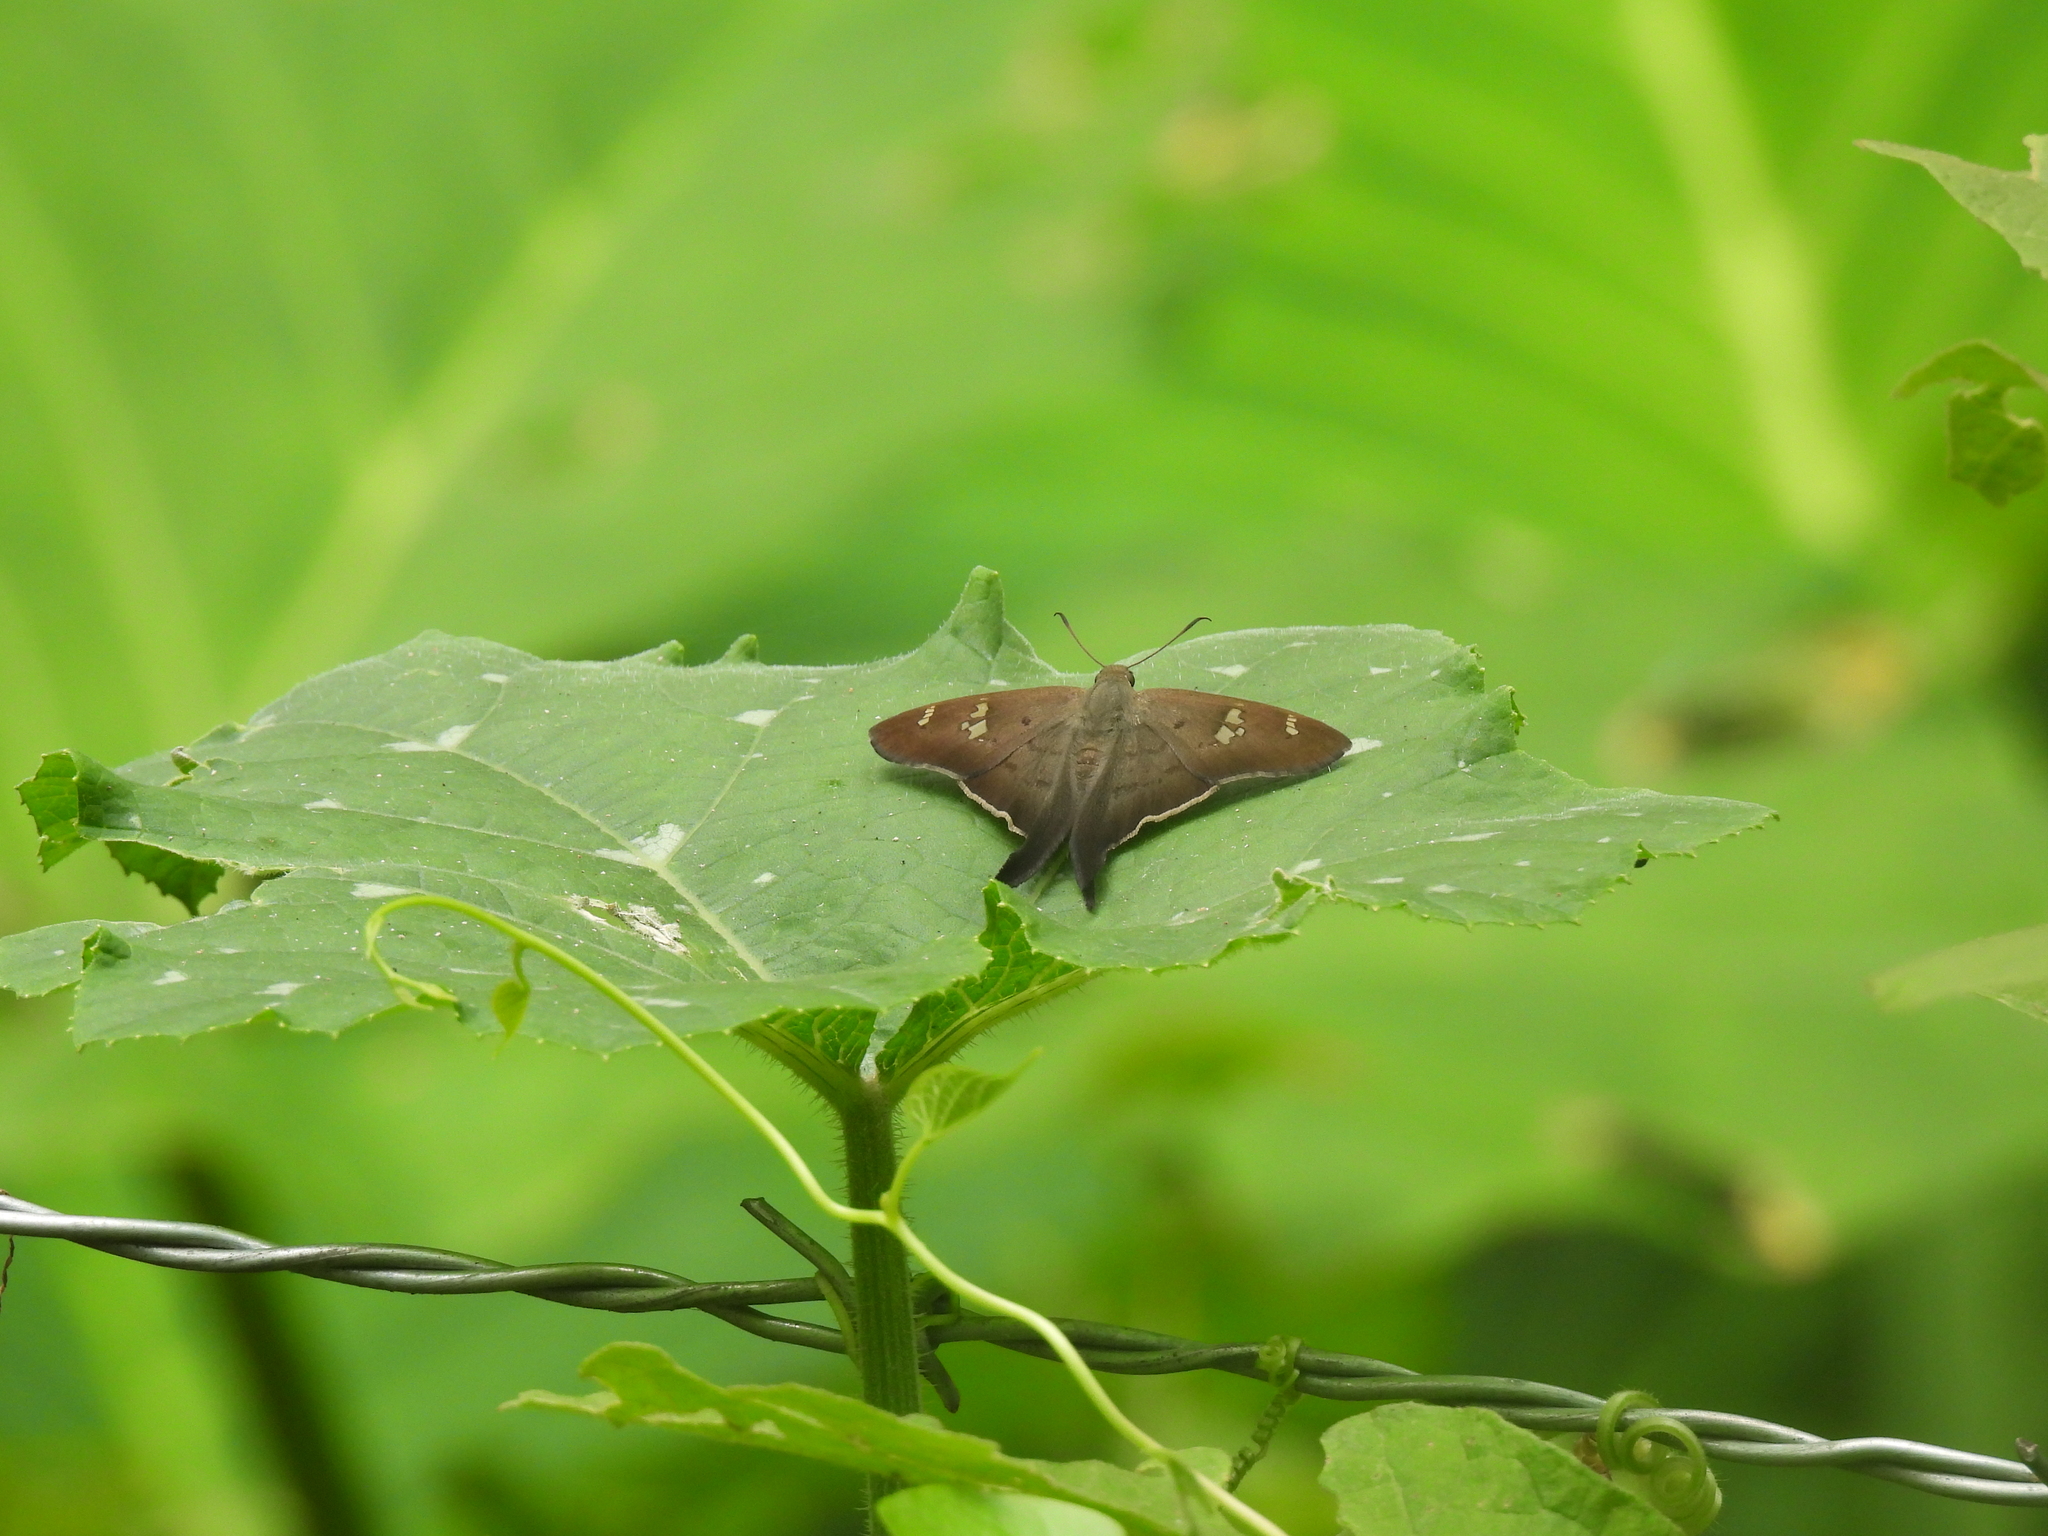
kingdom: Animalia
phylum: Arthropoda
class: Insecta
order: Lepidoptera
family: Hesperiidae
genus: Ectomis
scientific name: Ectomis
